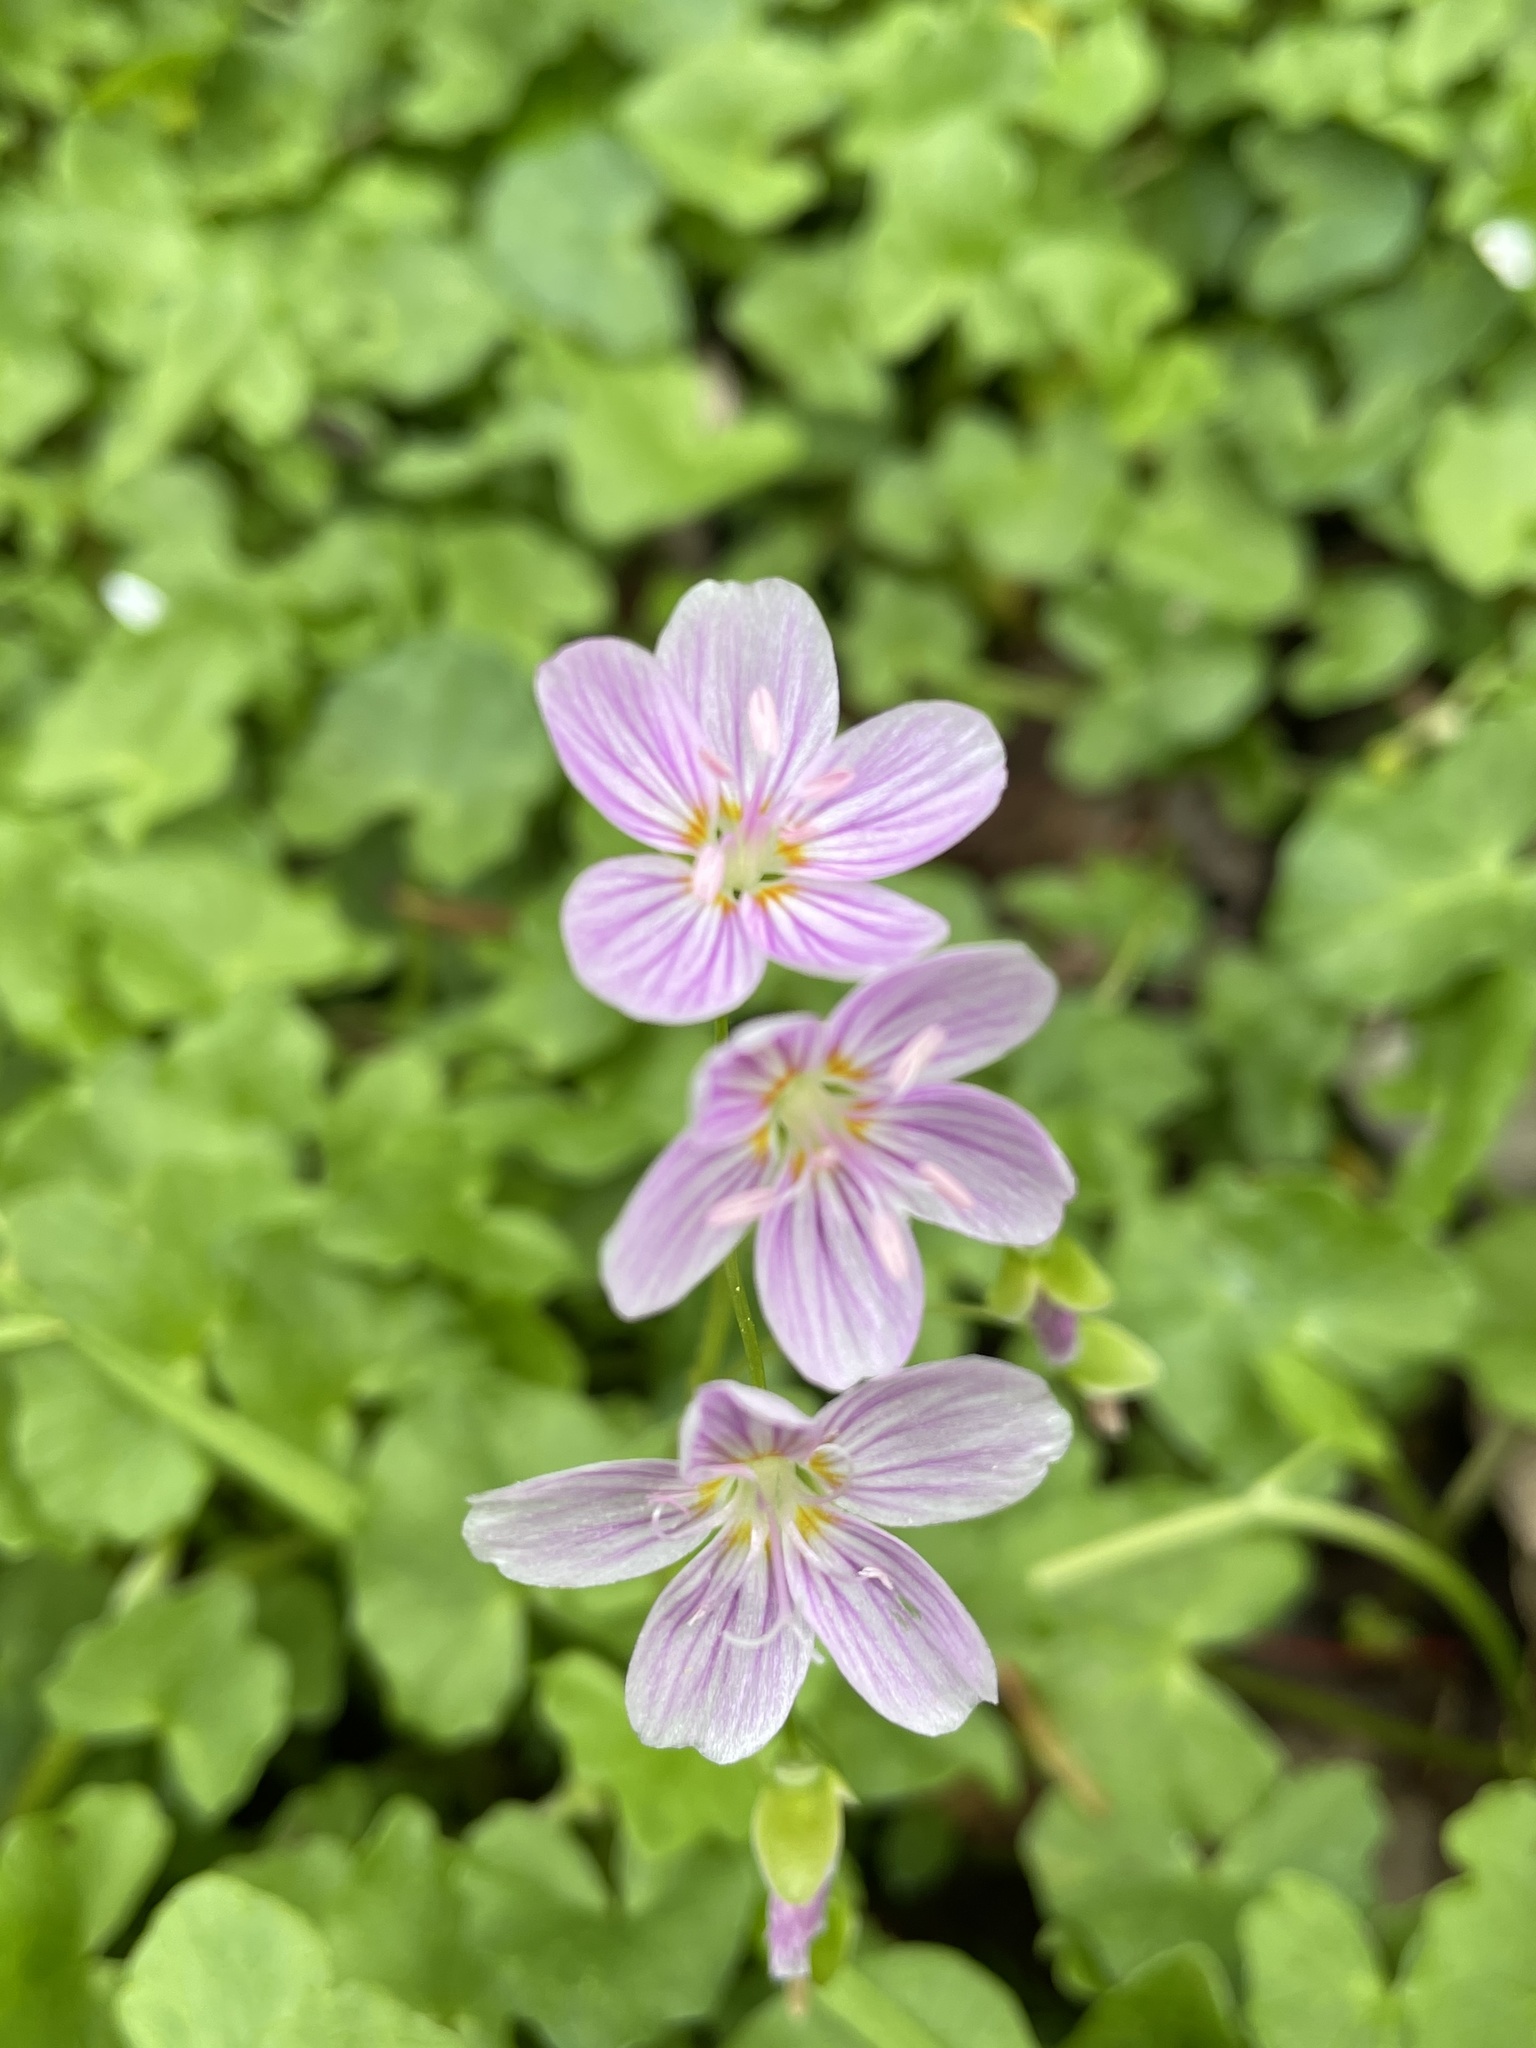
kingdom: Plantae
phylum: Tracheophyta
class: Magnoliopsida
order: Caryophyllales
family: Montiaceae
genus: Claytonia
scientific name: Claytonia virginica
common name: Virginia springbeauty
